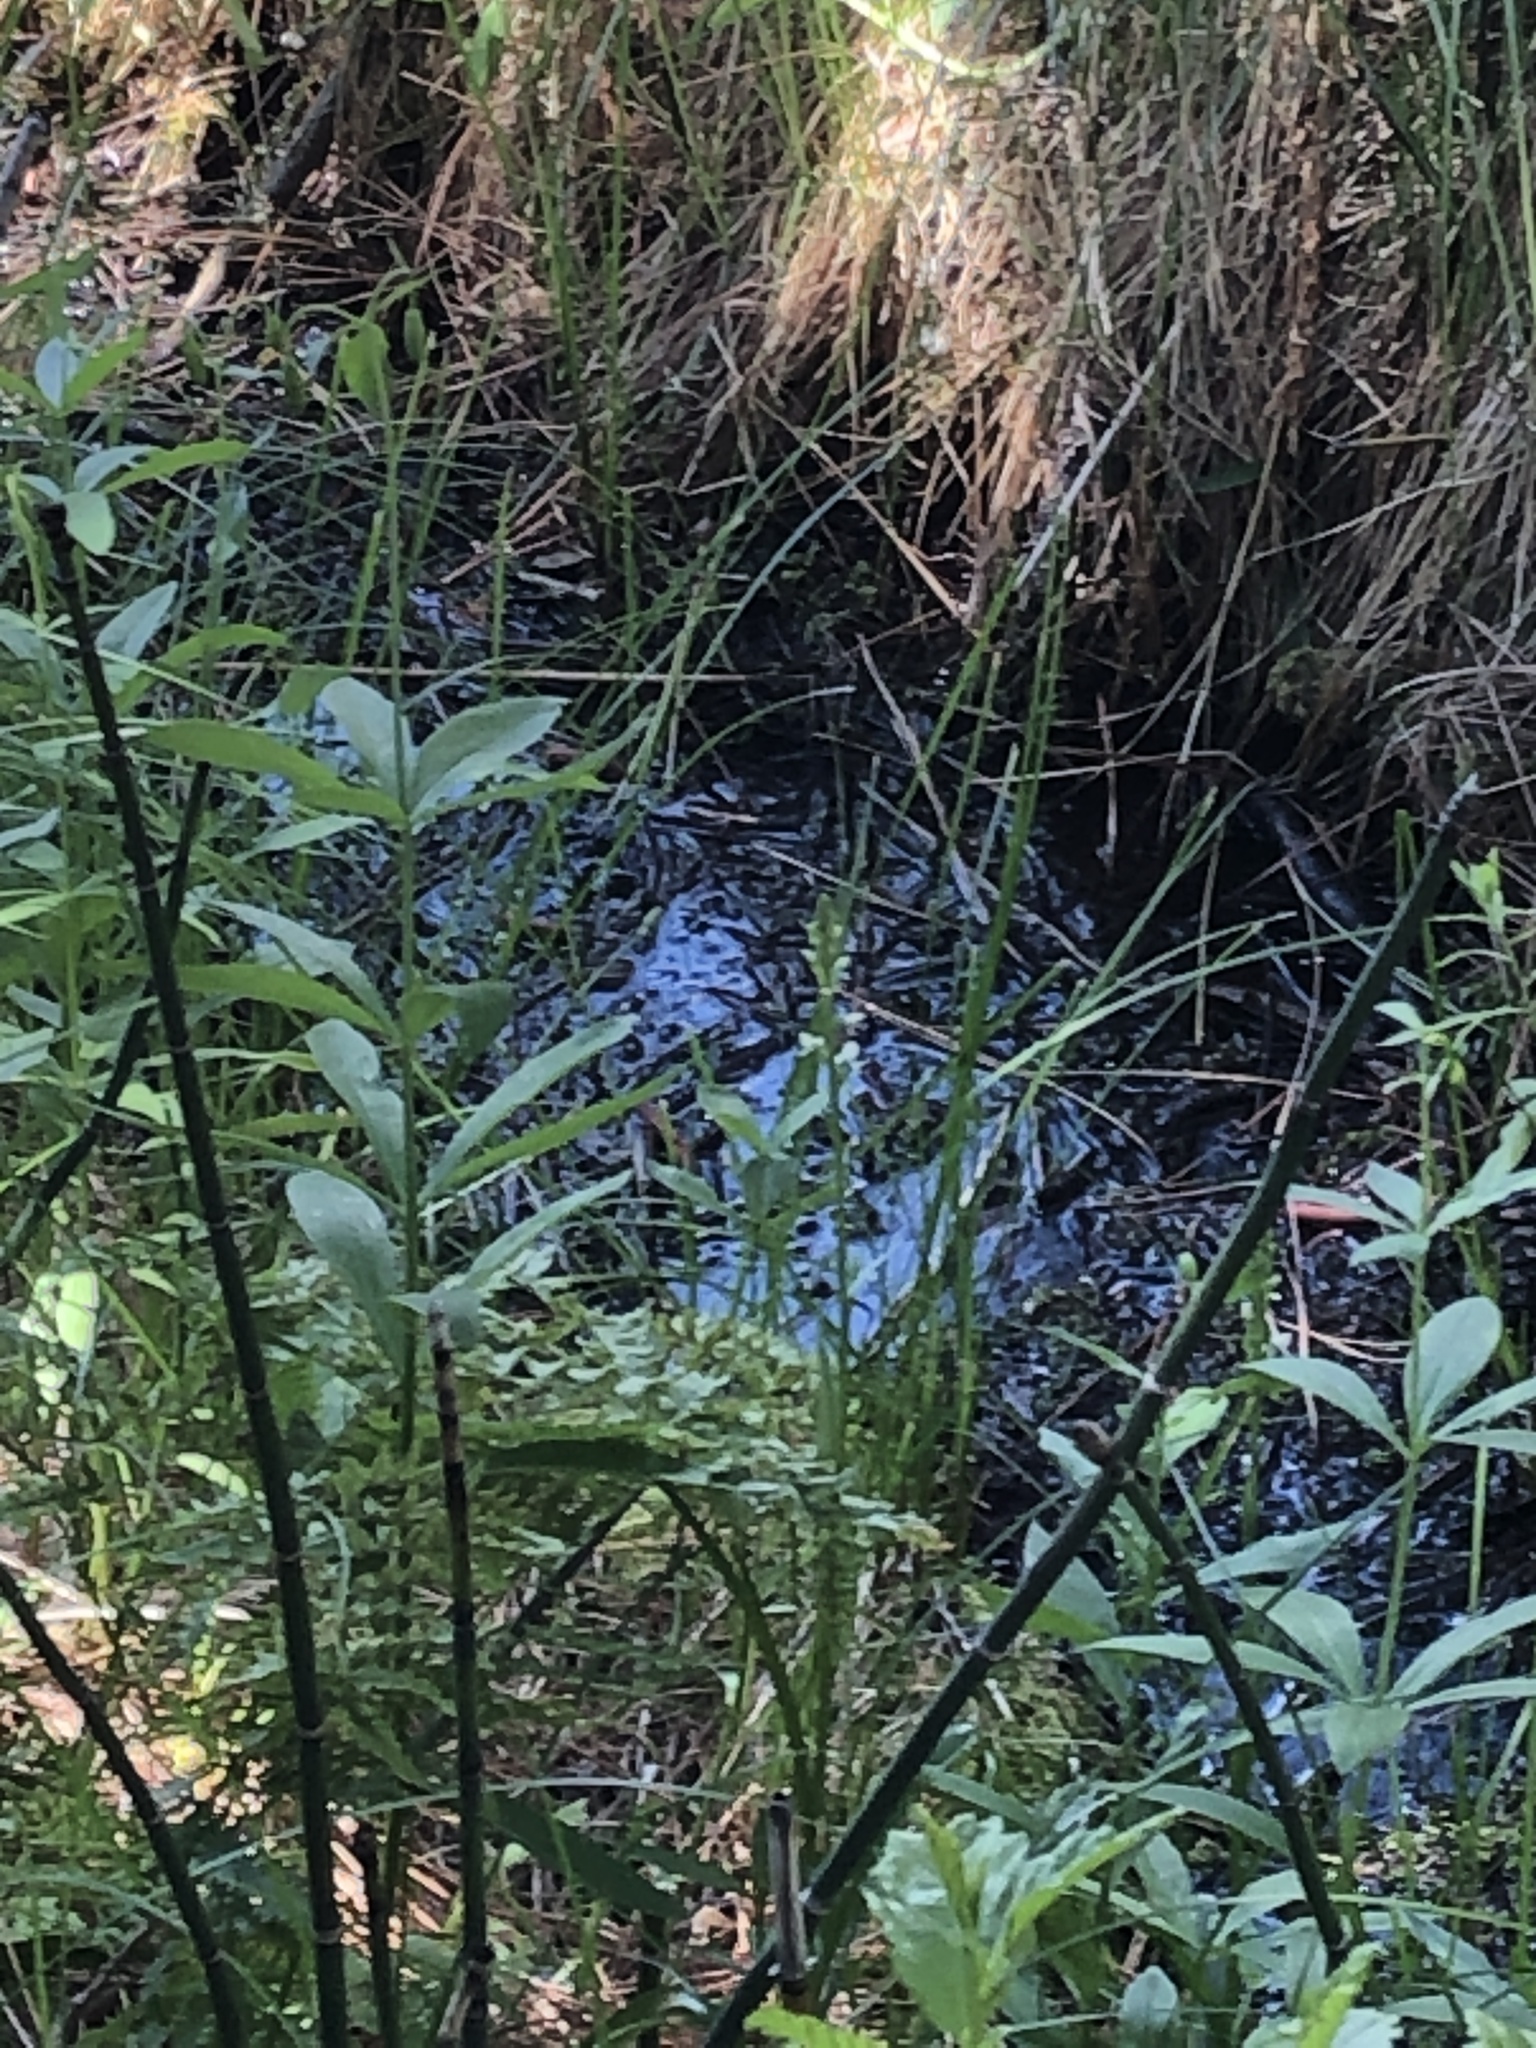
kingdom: Plantae
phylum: Tracheophyta
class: Liliopsida
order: Asparagales
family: Orchidaceae
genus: Platanthera
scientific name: Platanthera dilatata
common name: Bog candles
